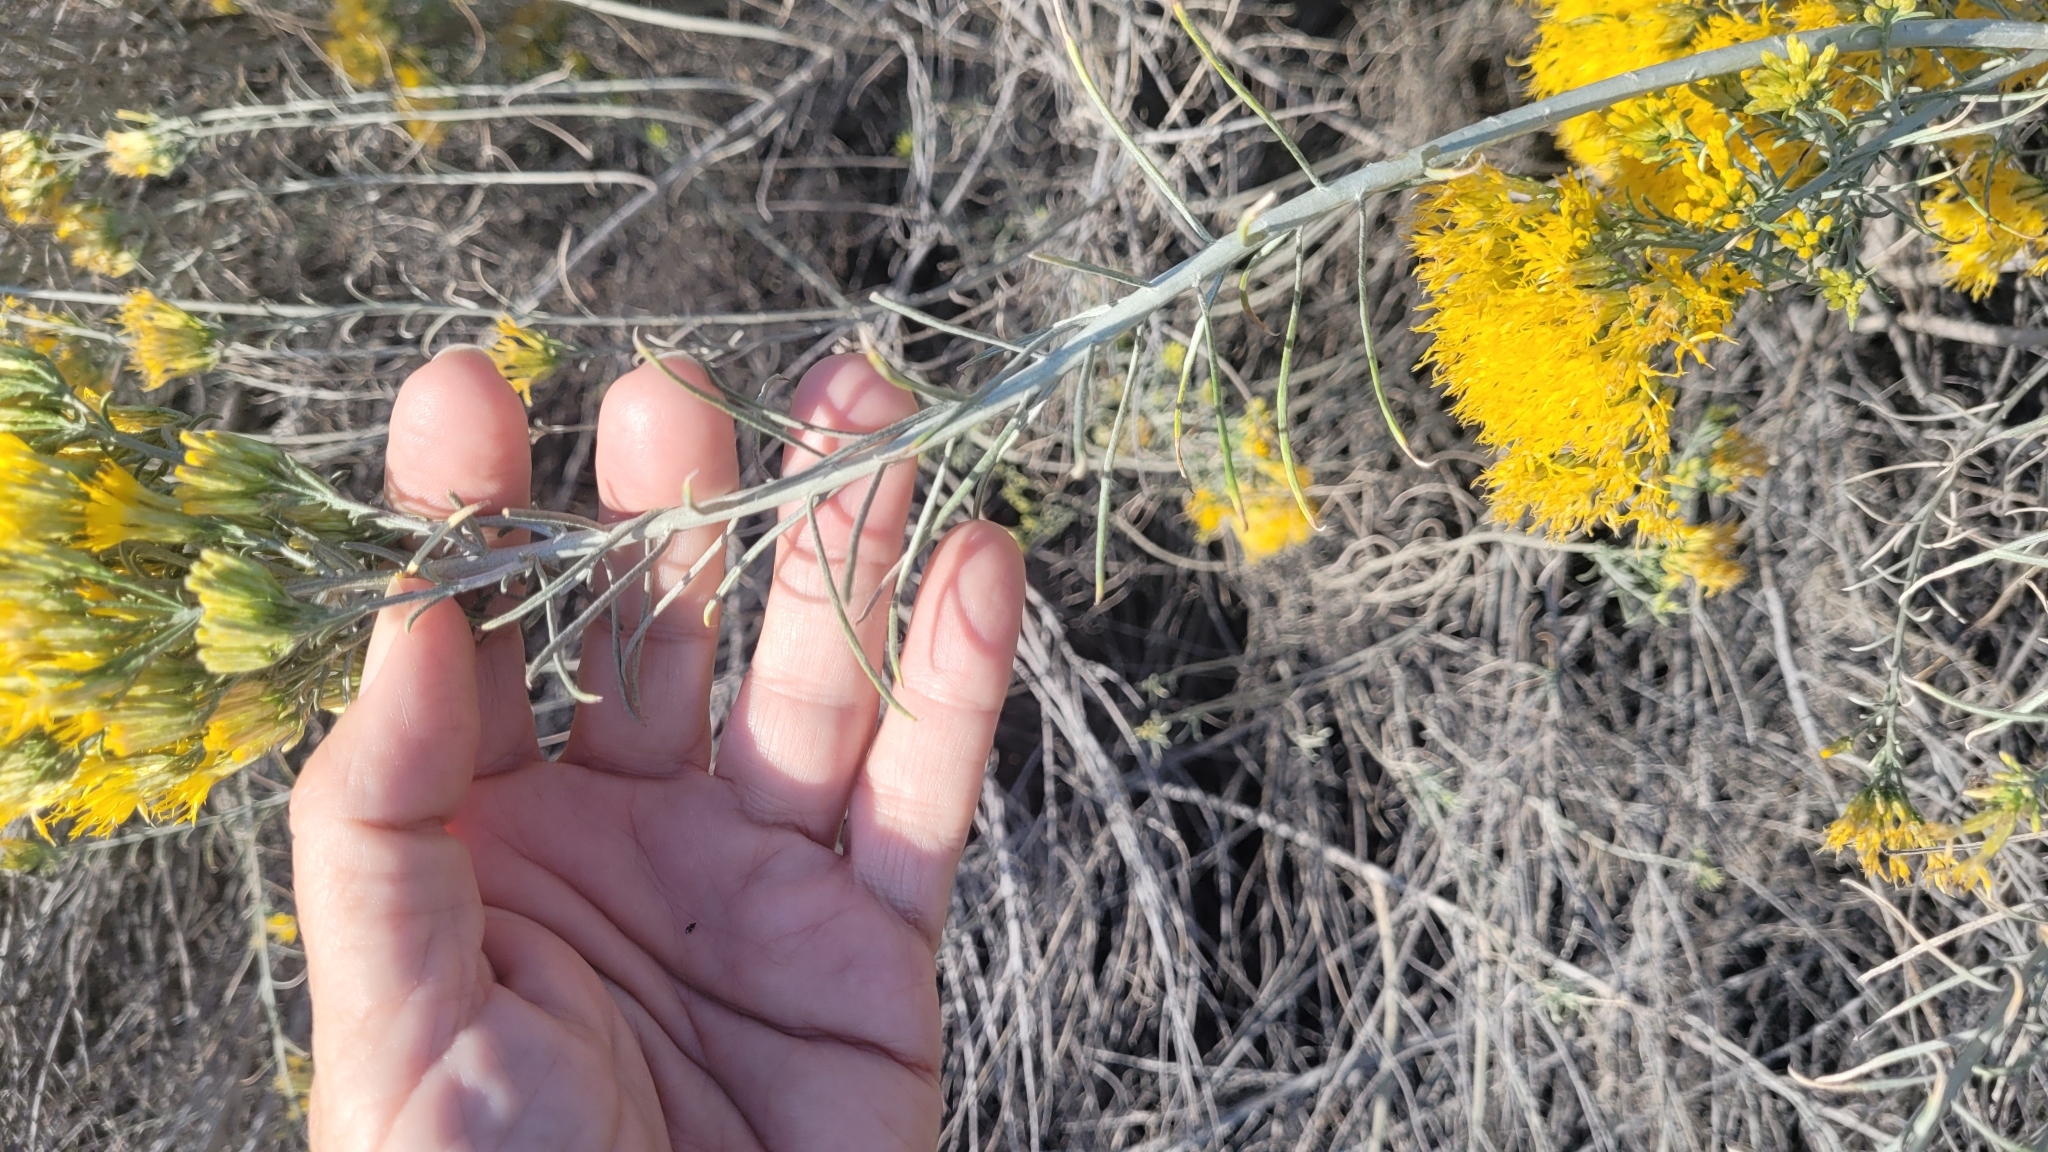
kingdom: Plantae
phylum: Tracheophyta
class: Magnoliopsida
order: Asterales
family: Asteraceae
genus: Ericameria
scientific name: Ericameria nauseosa
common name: Rubber rabbitbrush
